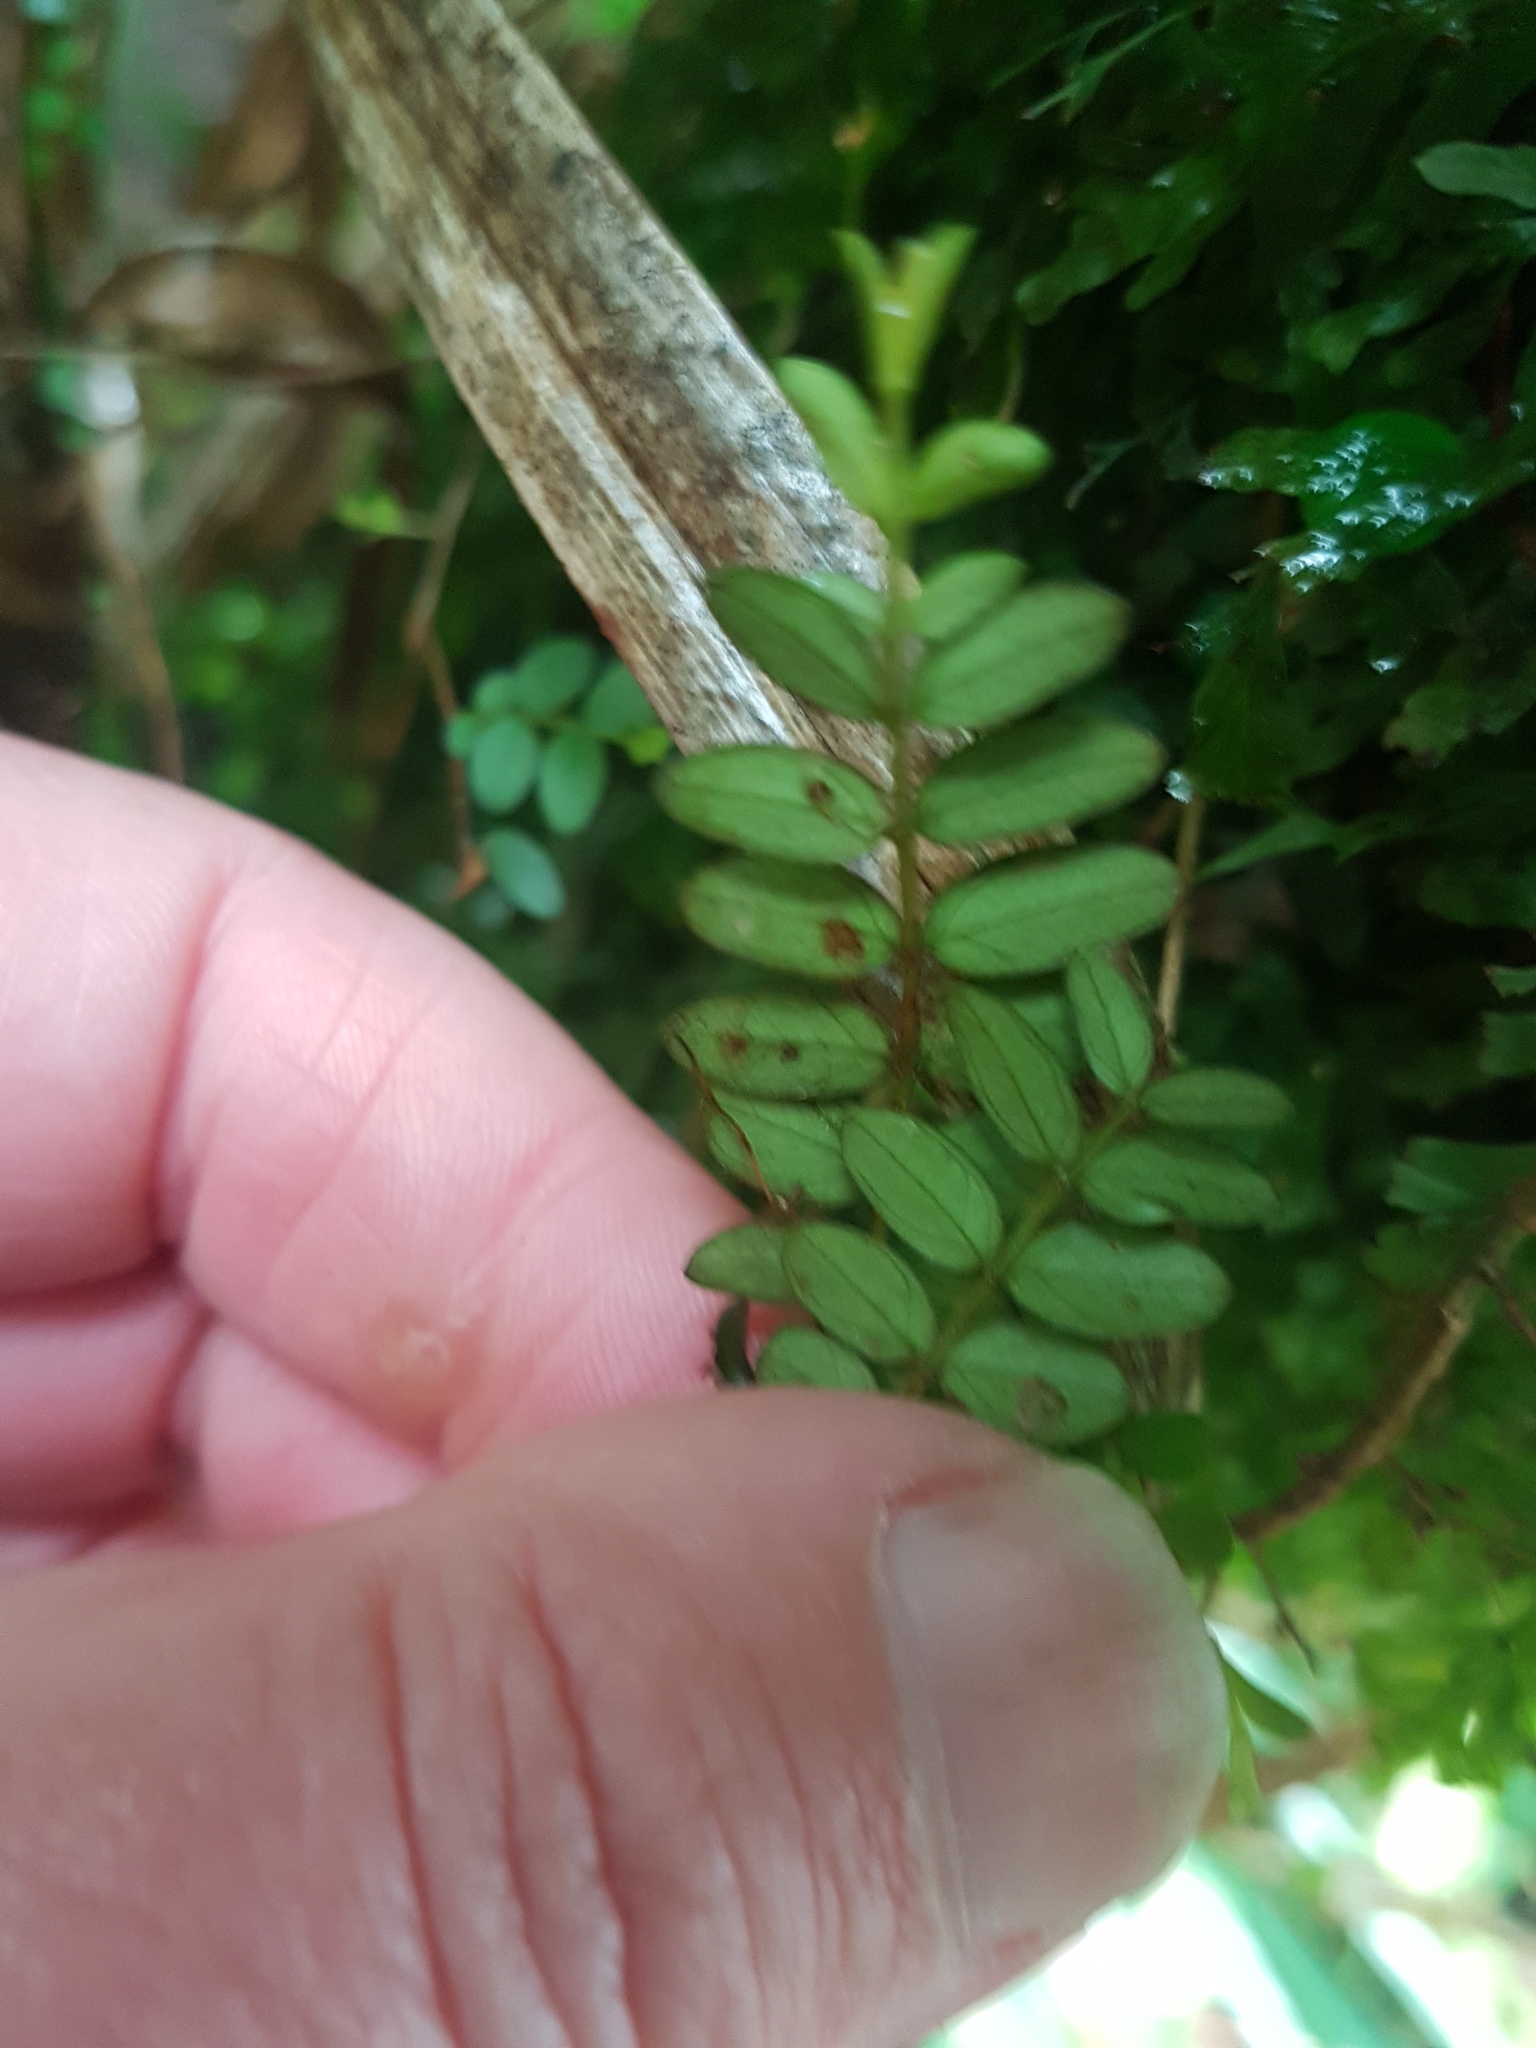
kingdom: Plantae
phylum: Tracheophyta
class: Magnoliopsida
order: Myrtales
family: Myrtaceae
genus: Metrosideros
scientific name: Metrosideros diffusa
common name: Small ratavine
